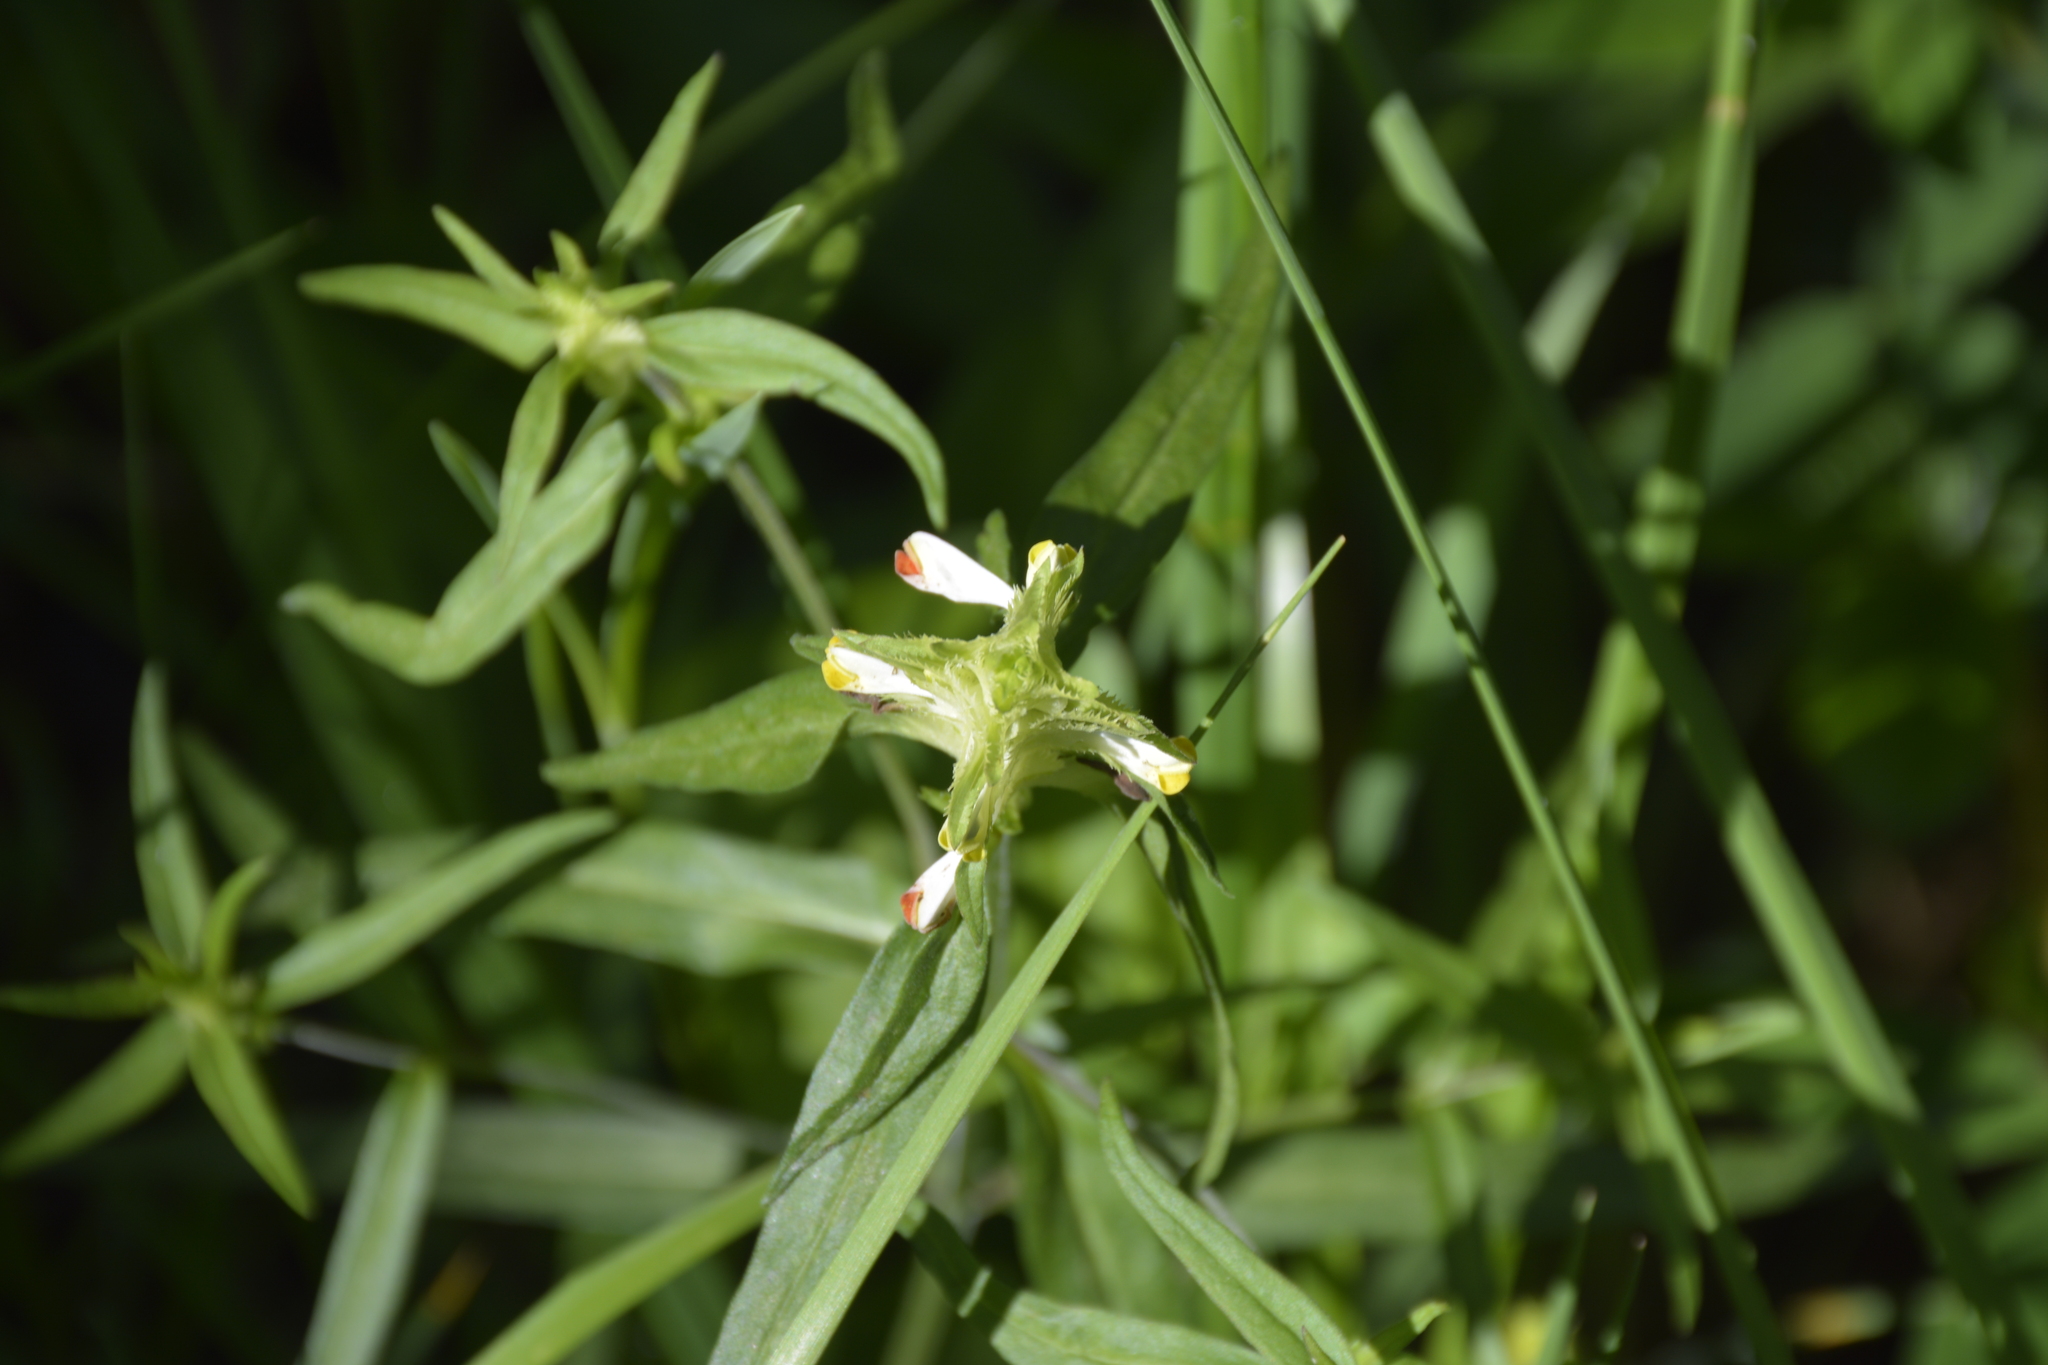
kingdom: Plantae
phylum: Tracheophyta
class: Magnoliopsida
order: Lamiales
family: Orobanchaceae
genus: Melampyrum
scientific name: Melampyrum cristatum
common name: Crested cow-wheat
